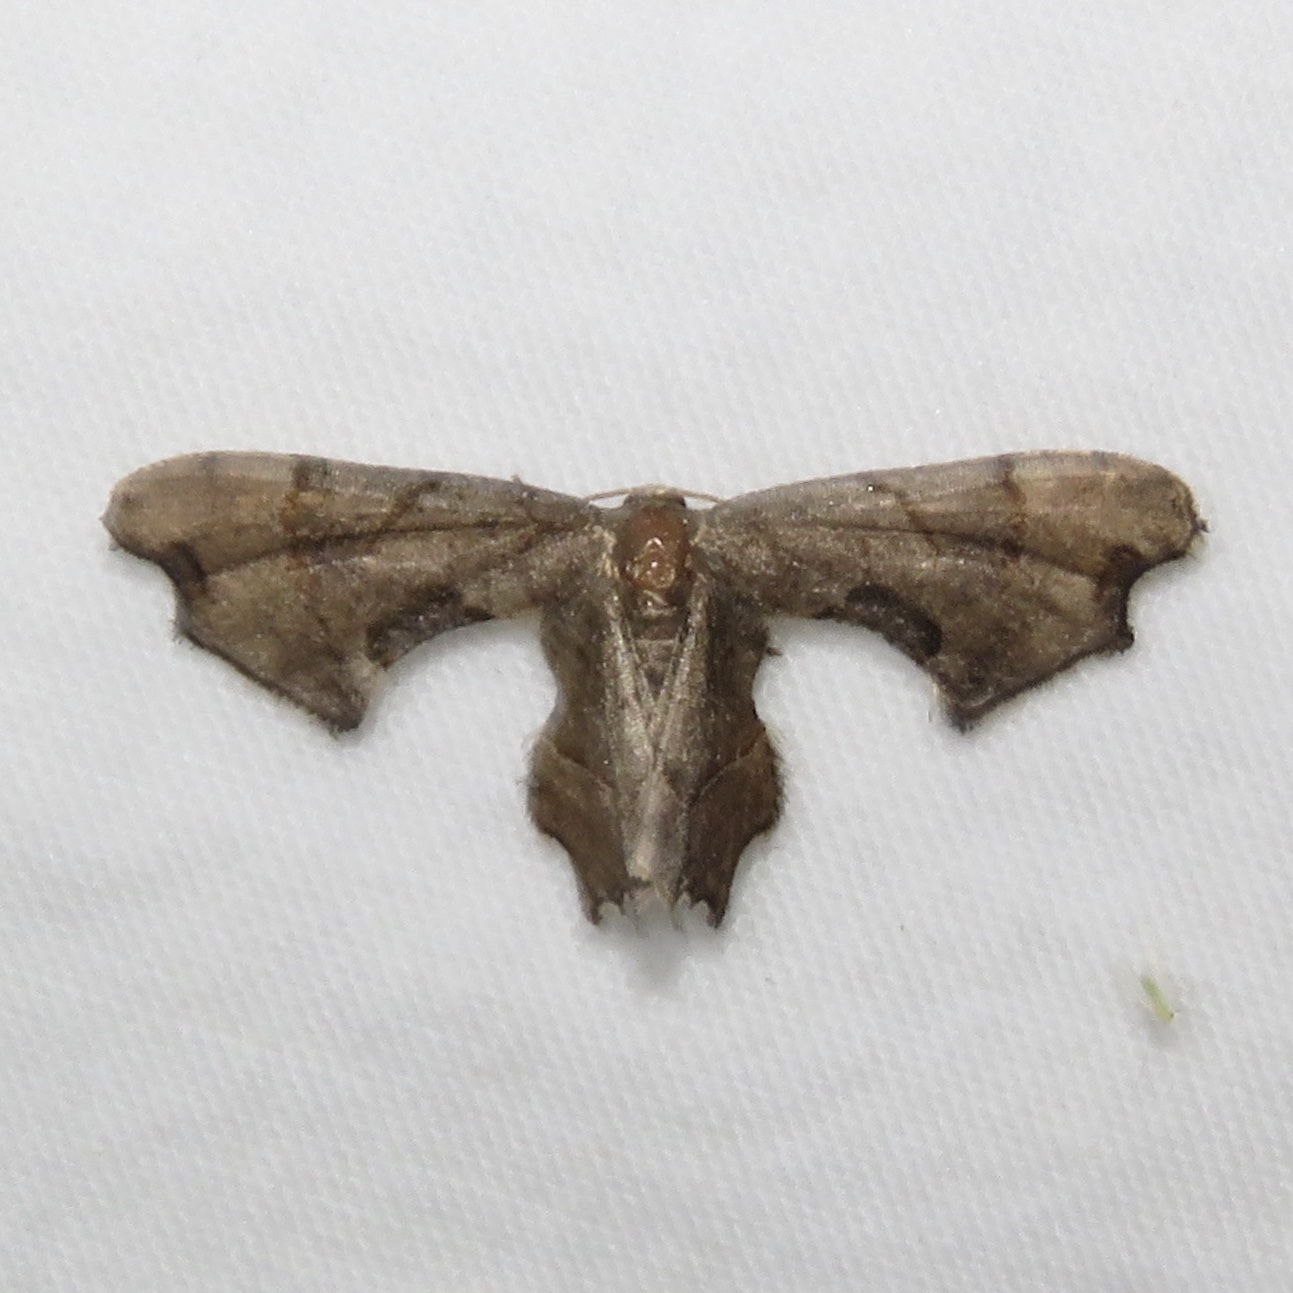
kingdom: Animalia
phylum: Arthropoda
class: Insecta
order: Lepidoptera
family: Uraniidae
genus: Epiplema
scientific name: Epiplema Calledapteryx dryopterata
